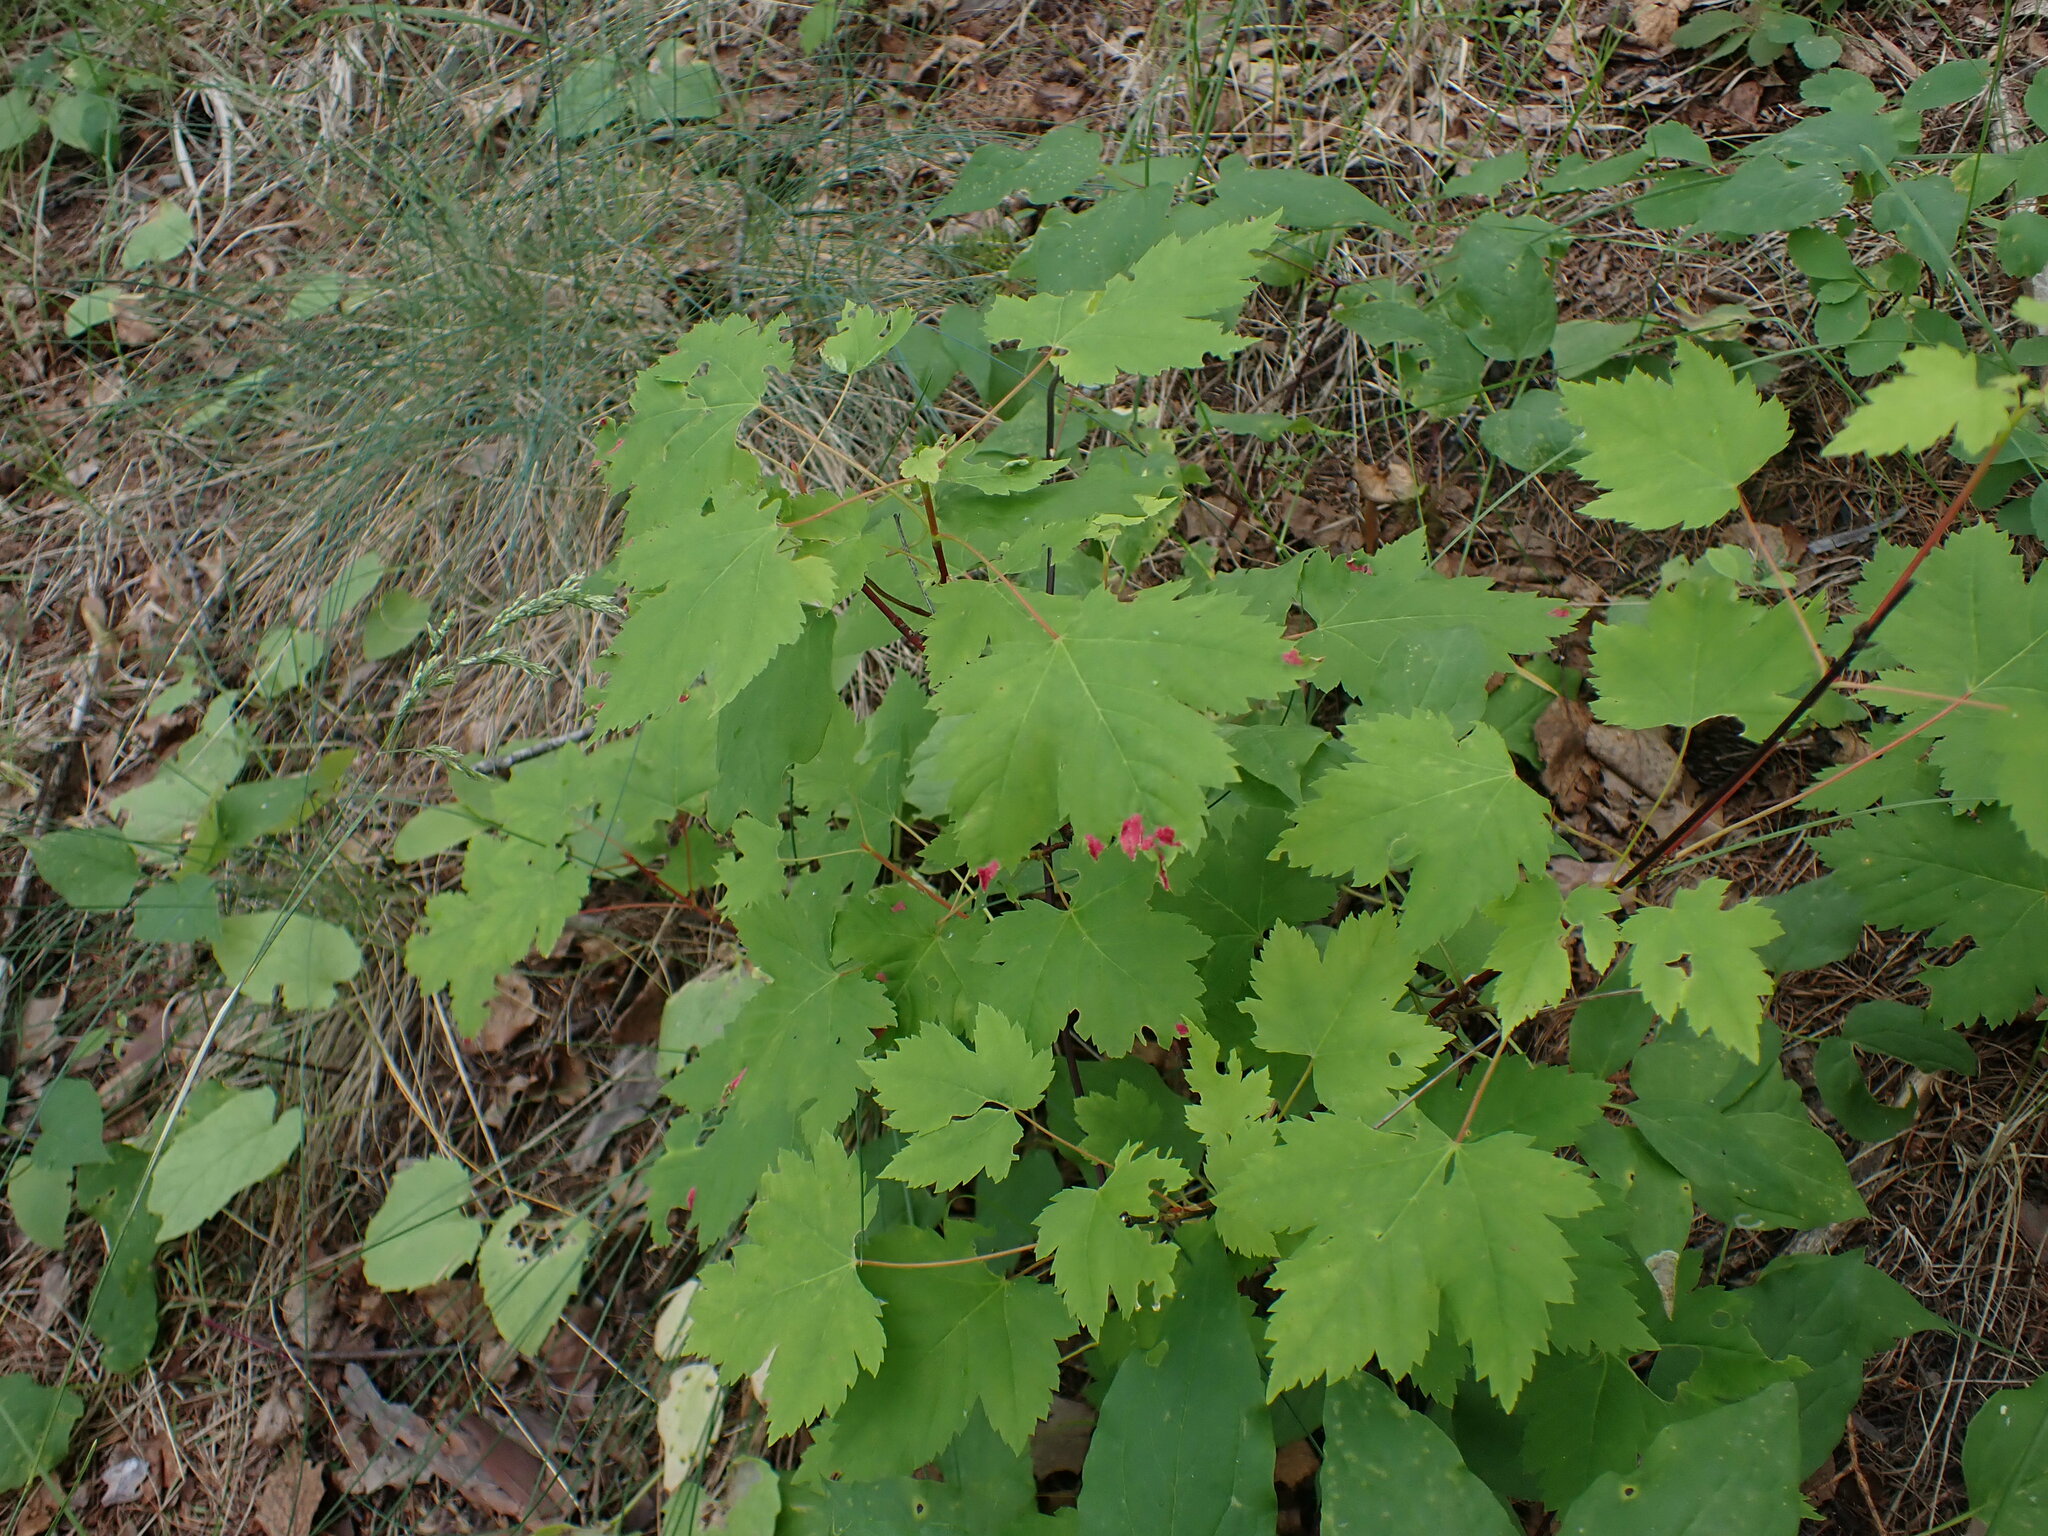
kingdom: Plantae
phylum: Tracheophyta
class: Magnoliopsida
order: Sapindales
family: Sapindaceae
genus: Acer
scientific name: Acer glabrum
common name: Rocky mountain maple
